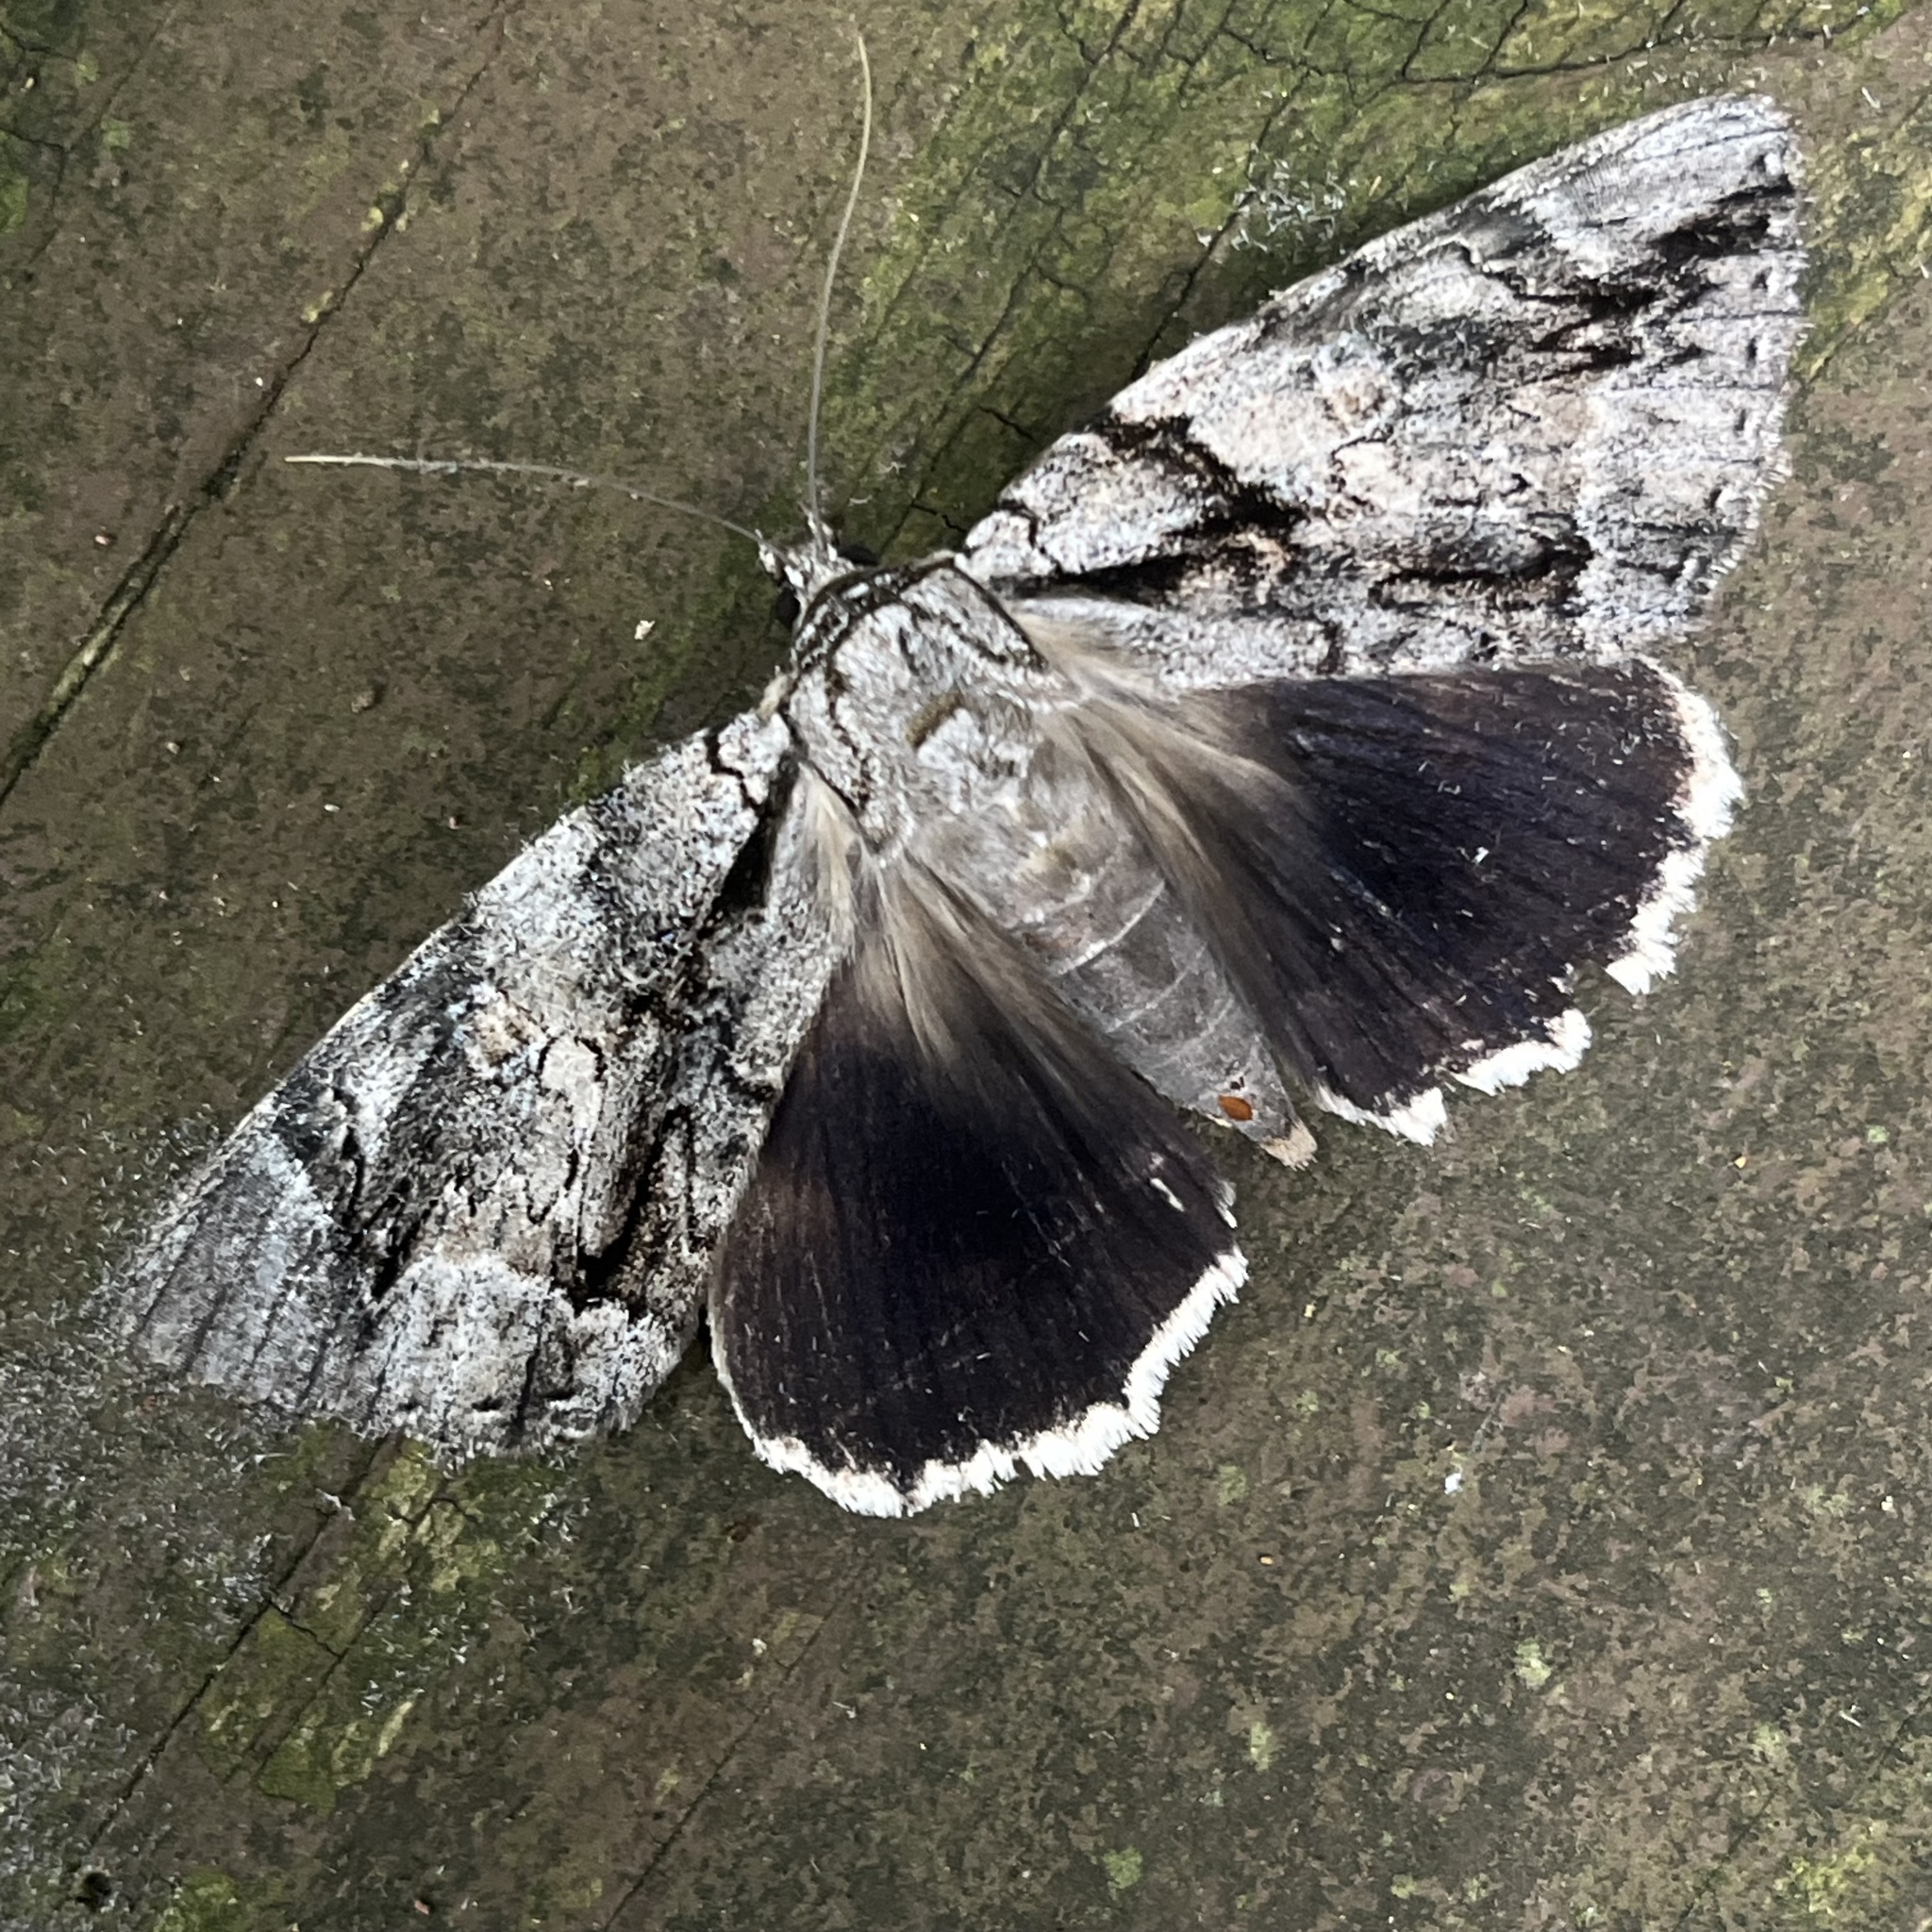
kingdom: Animalia
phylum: Arthropoda
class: Insecta
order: Lepidoptera
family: Erebidae
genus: Catocala
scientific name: Catocala vidua
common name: The widow
